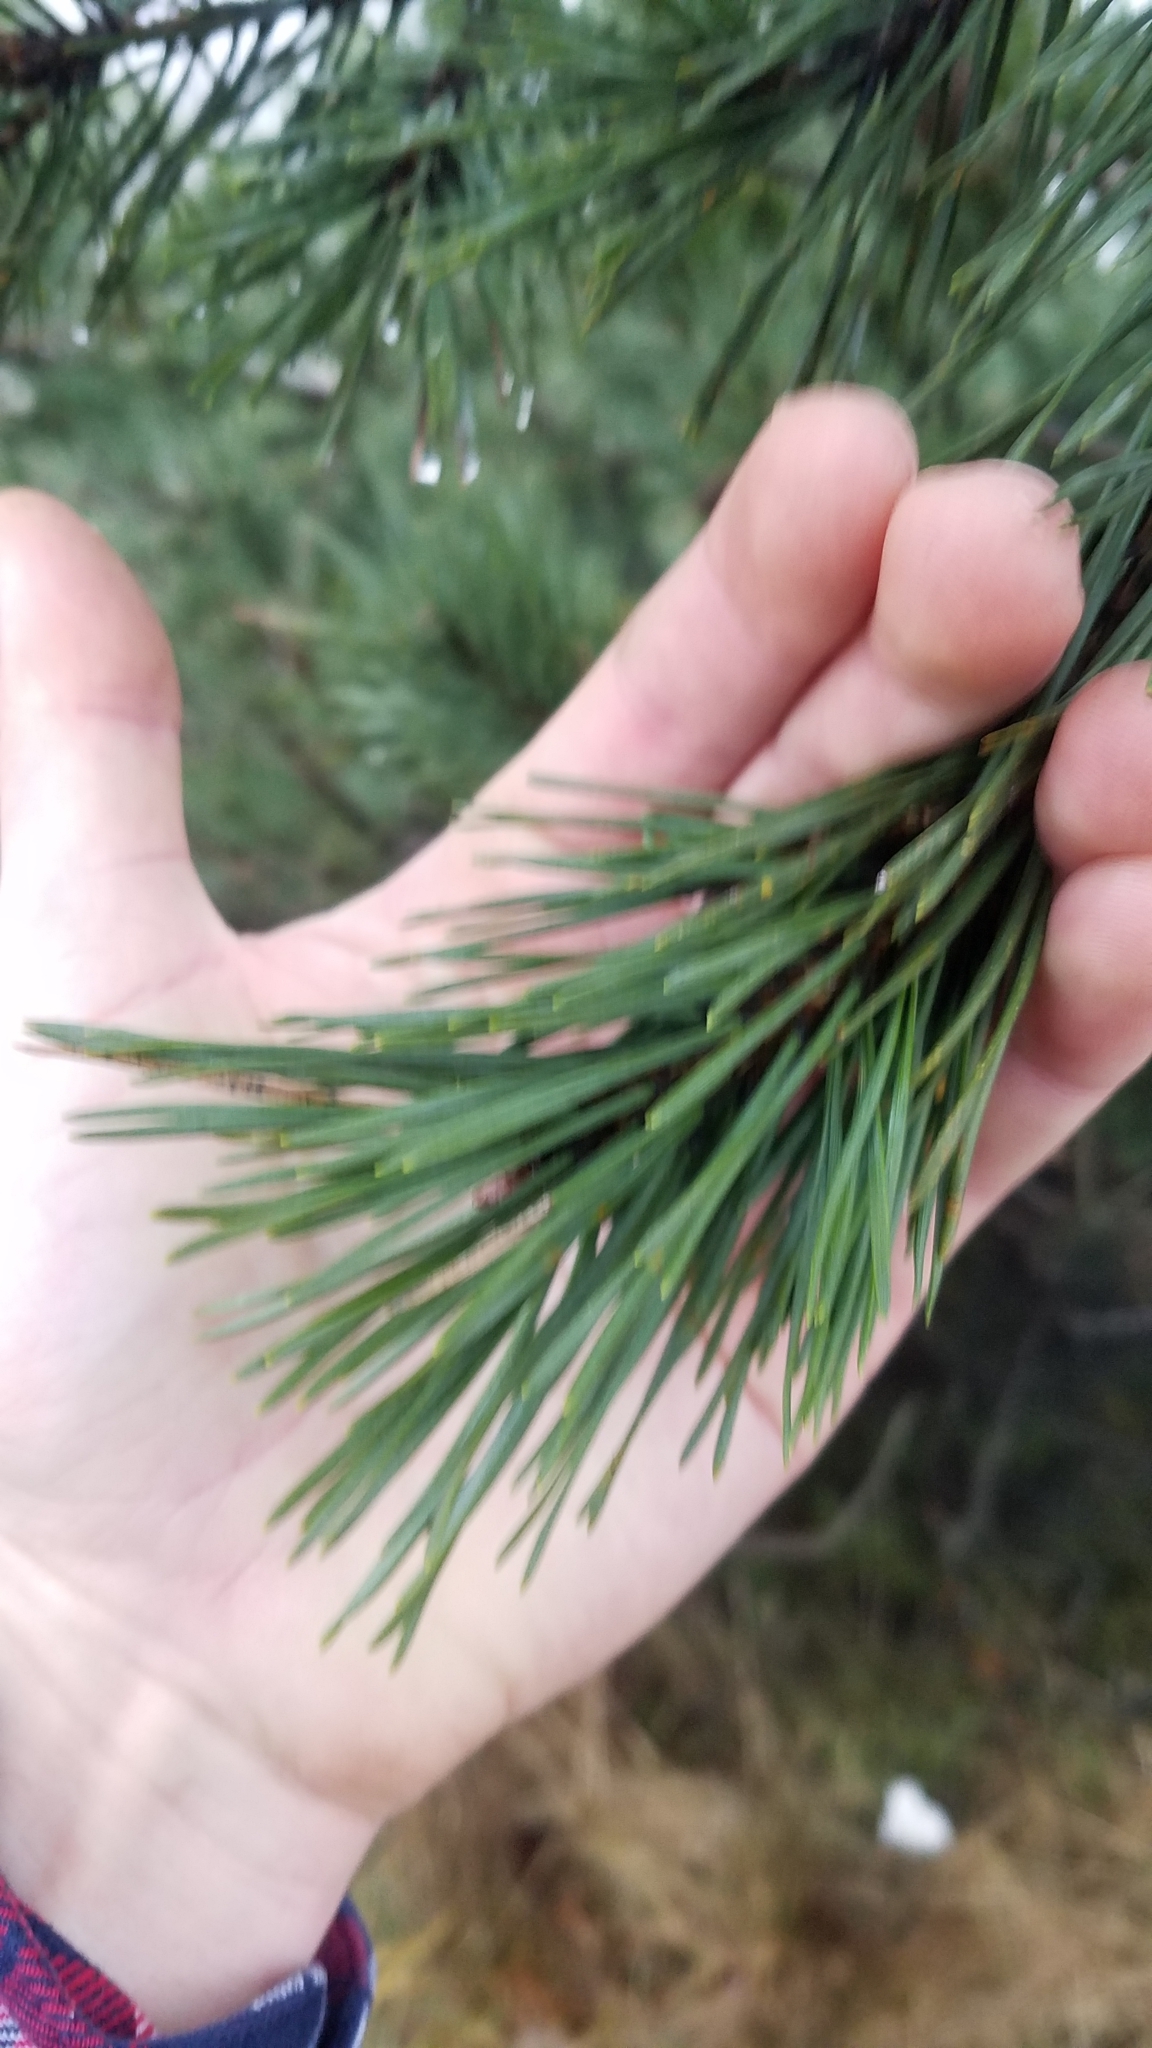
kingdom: Plantae
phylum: Tracheophyta
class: Pinopsida
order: Pinales
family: Pinaceae
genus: Pinus
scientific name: Pinus sylvestris
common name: Scots pine
